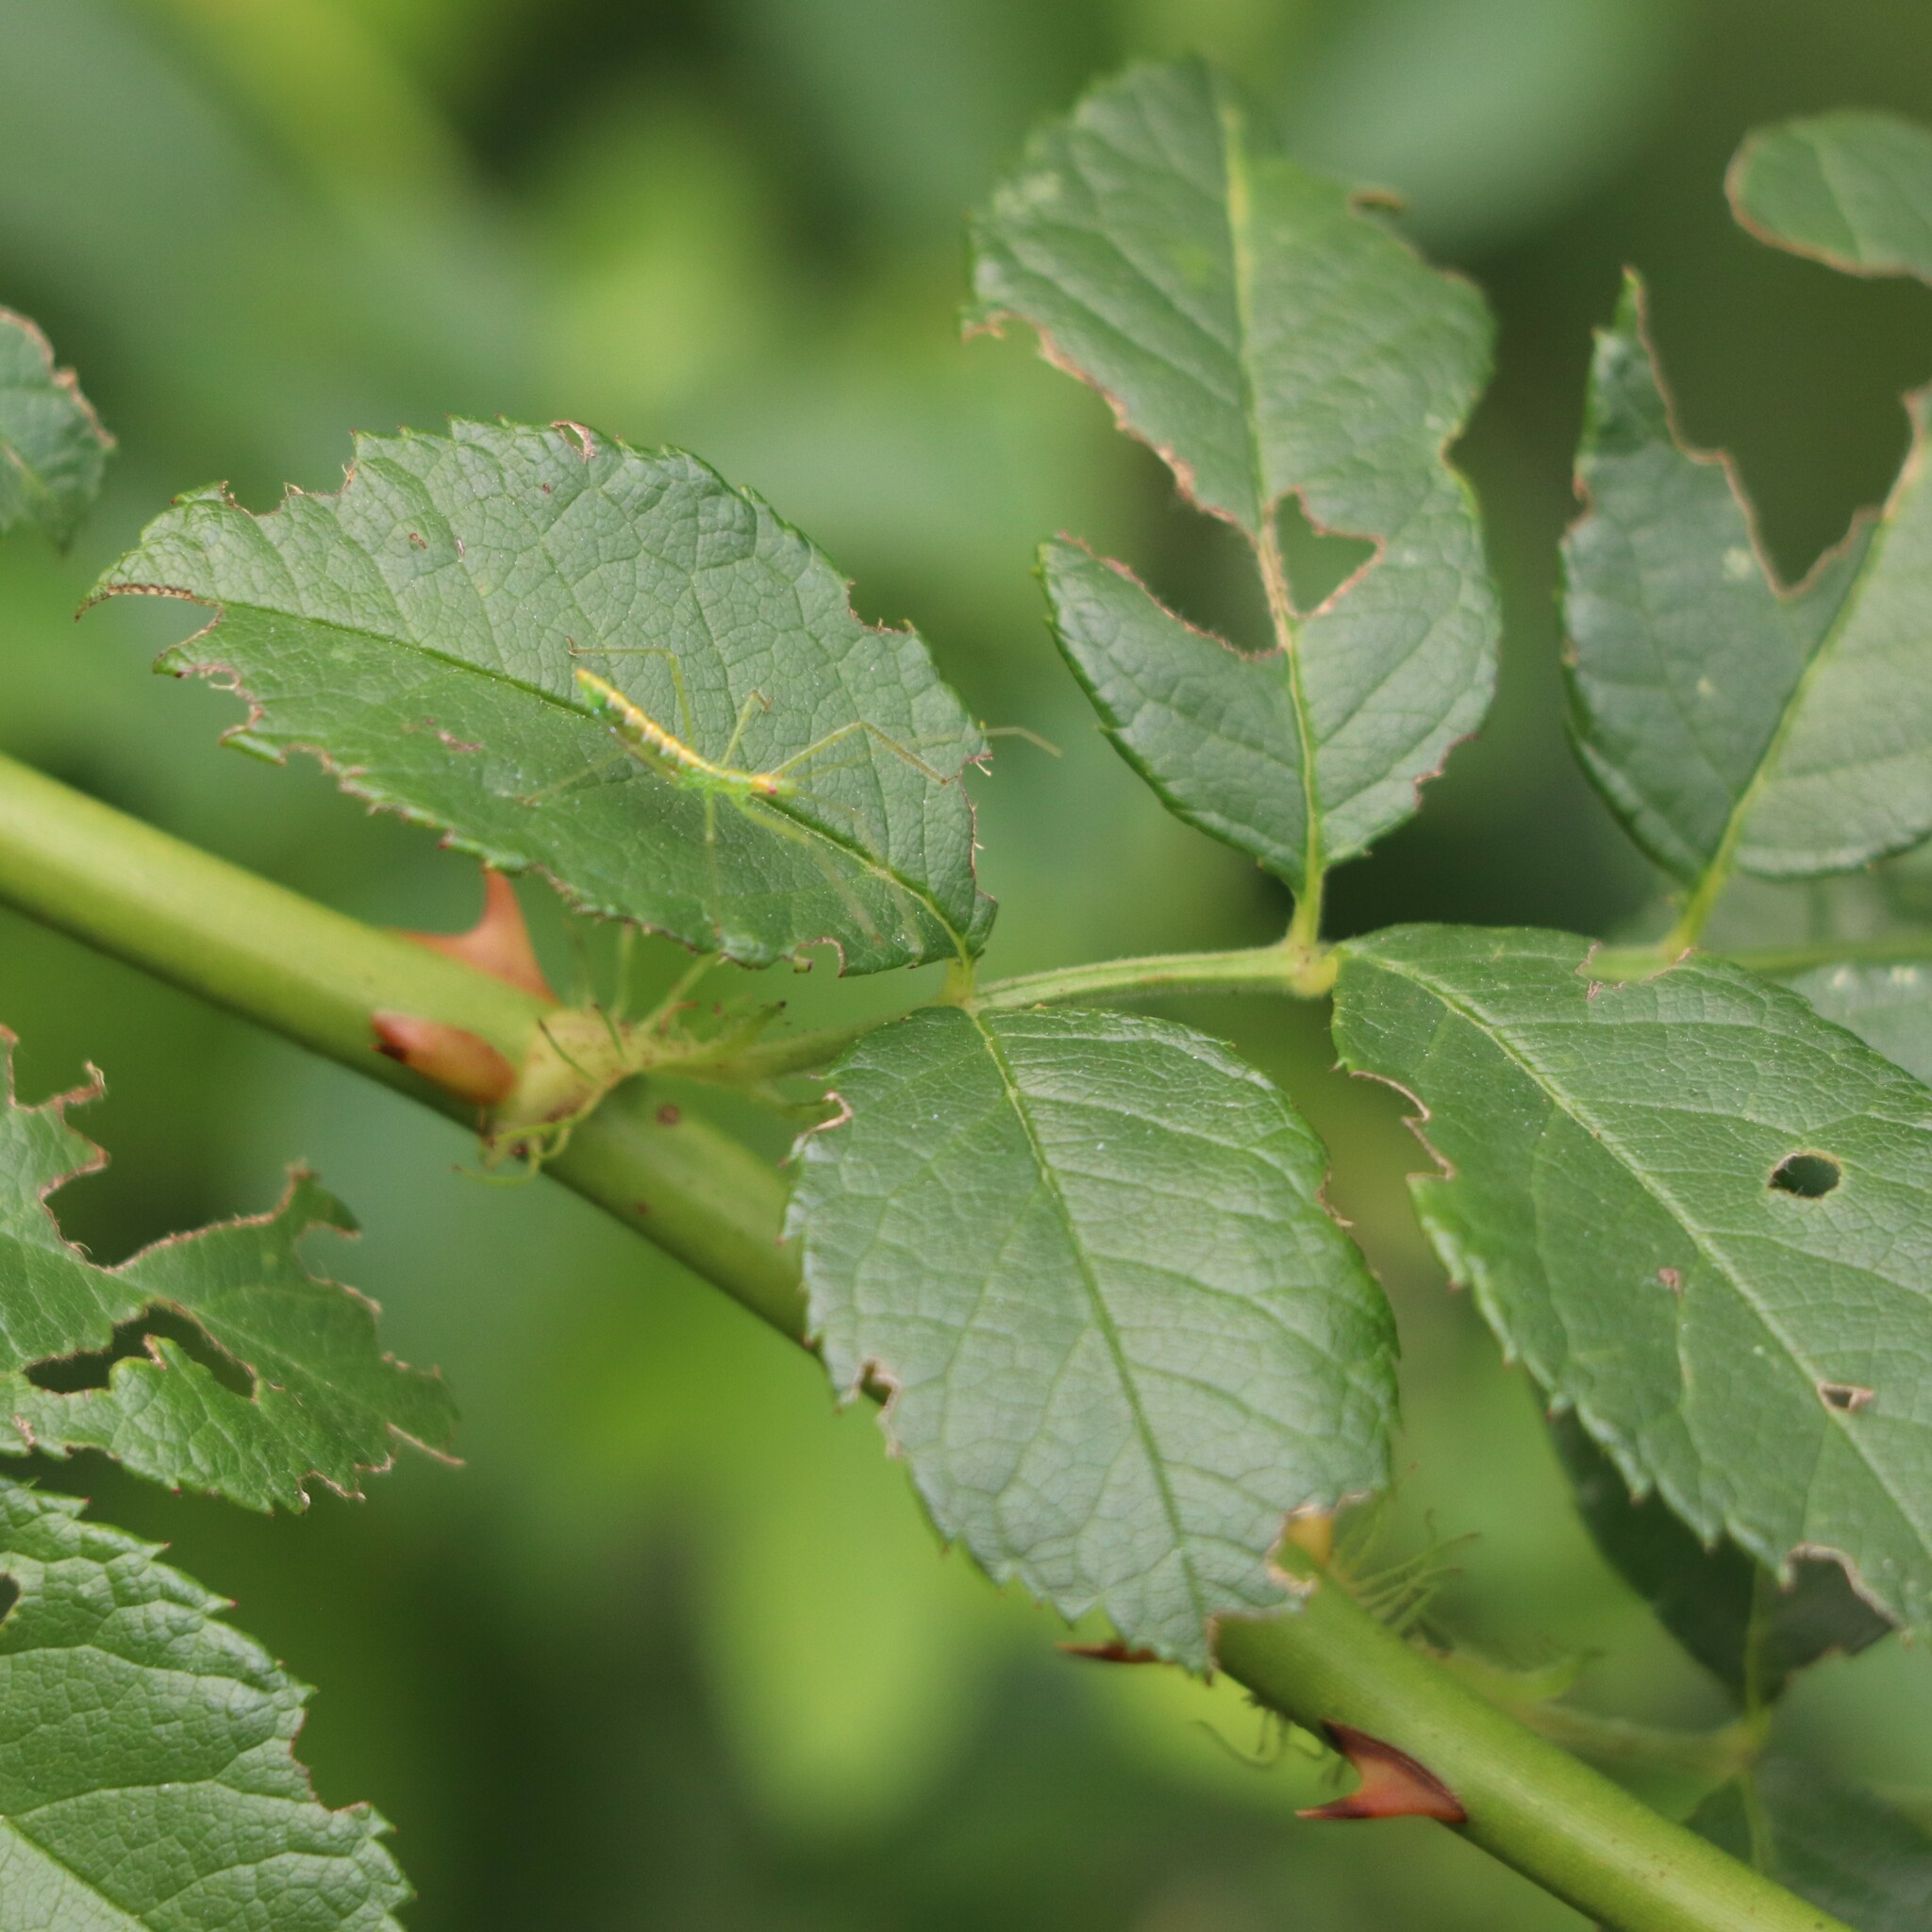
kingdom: Plantae
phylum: Tracheophyta
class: Magnoliopsida
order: Rosales
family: Rosaceae
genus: Rosa
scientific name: Rosa multiflora
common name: Multiflora rose
